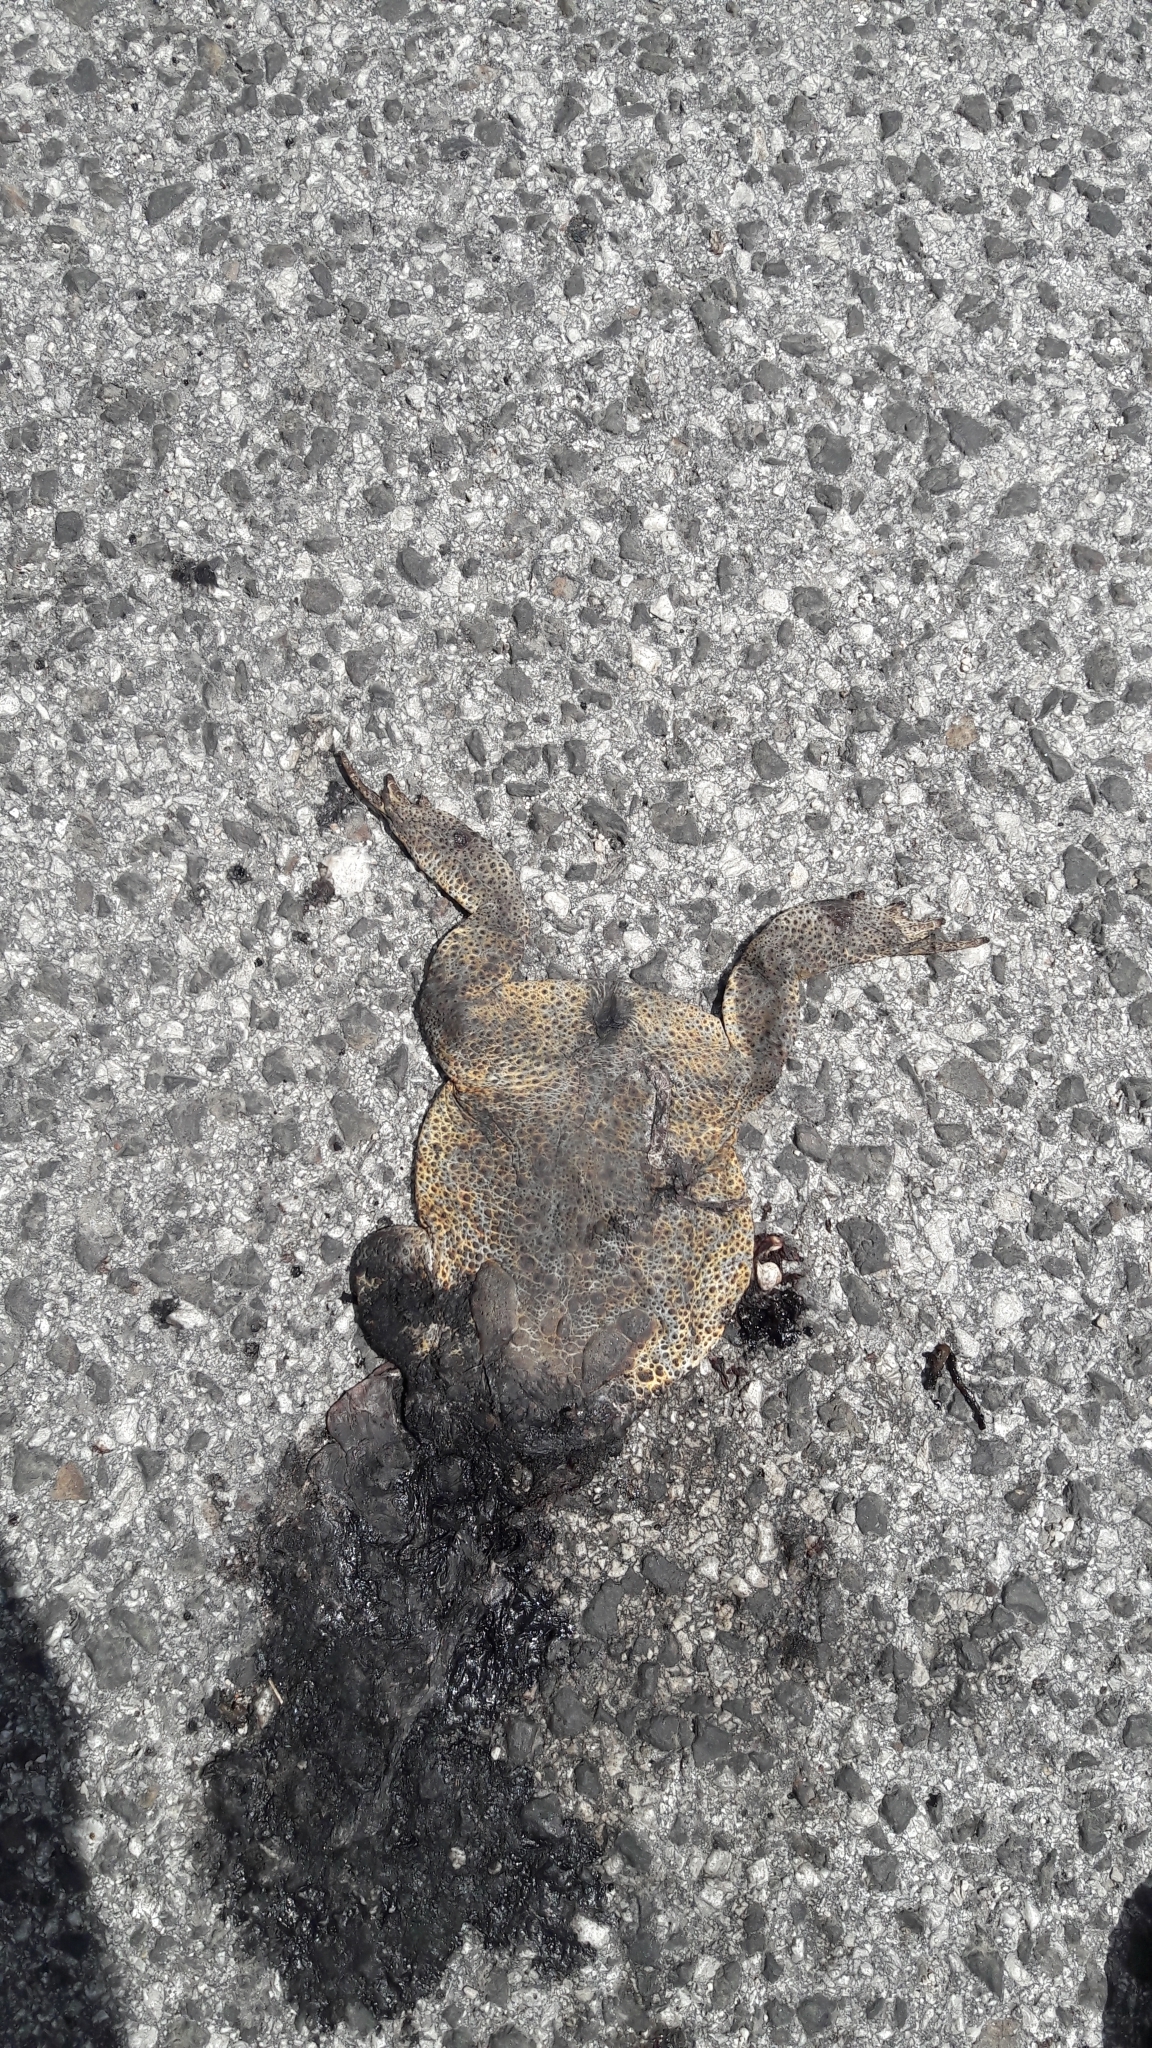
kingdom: Animalia
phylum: Chordata
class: Amphibia
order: Anura
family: Bufonidae
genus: Bufo
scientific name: Bufo bufo
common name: Common toad
